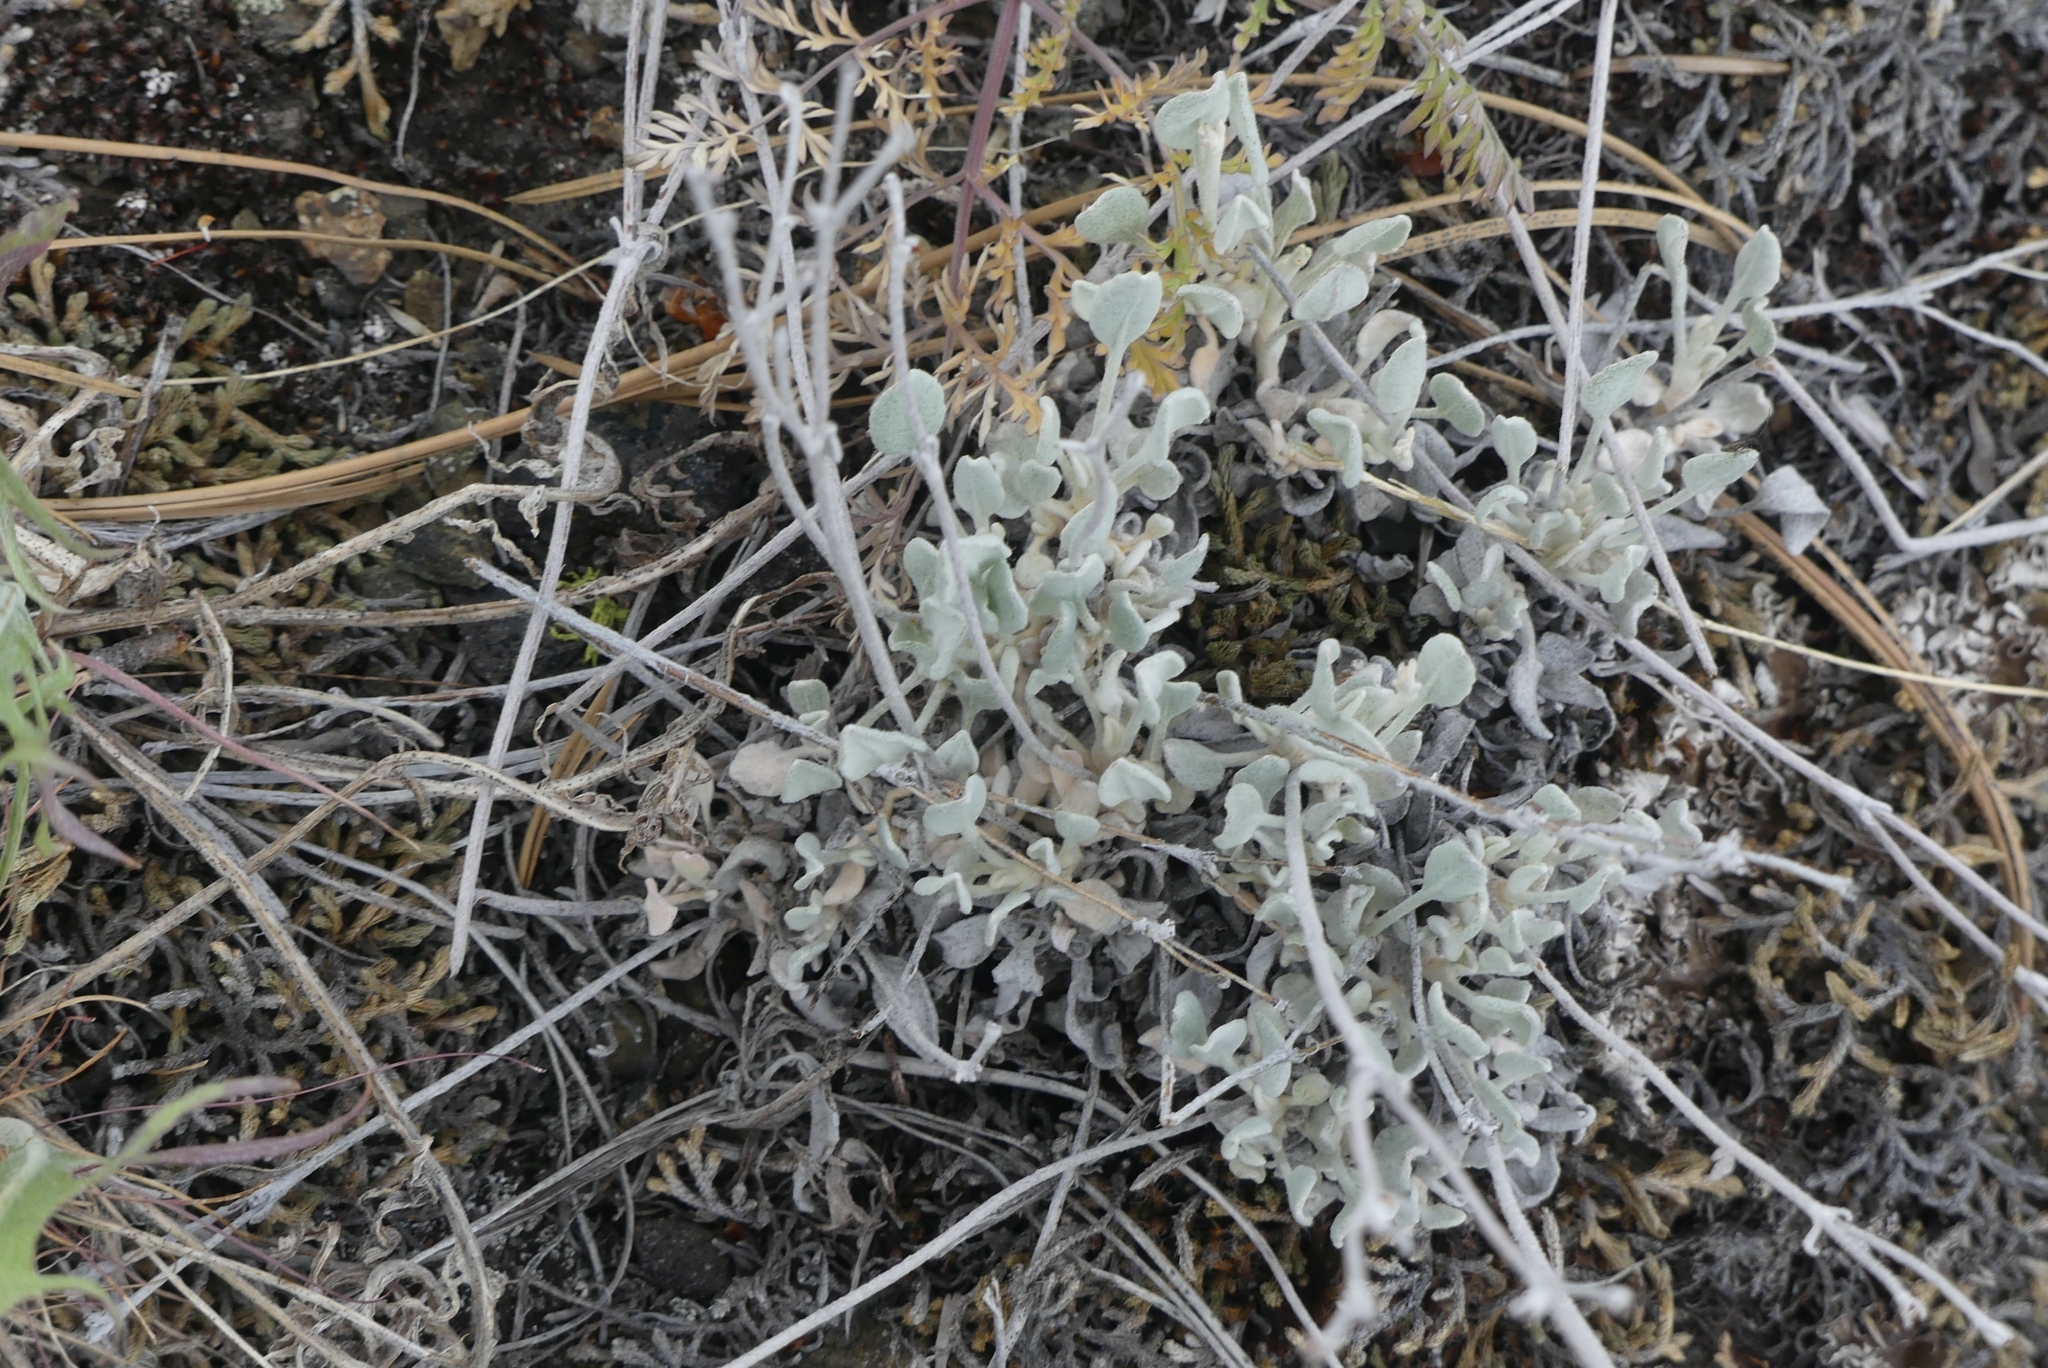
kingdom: Plantae
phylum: Tracheophyta
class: Magnoliopsida
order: Caryophyllales
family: Polygonaceae
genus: Eriogonum
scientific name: Eriogonum niveum
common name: Snow wild buckwheat
